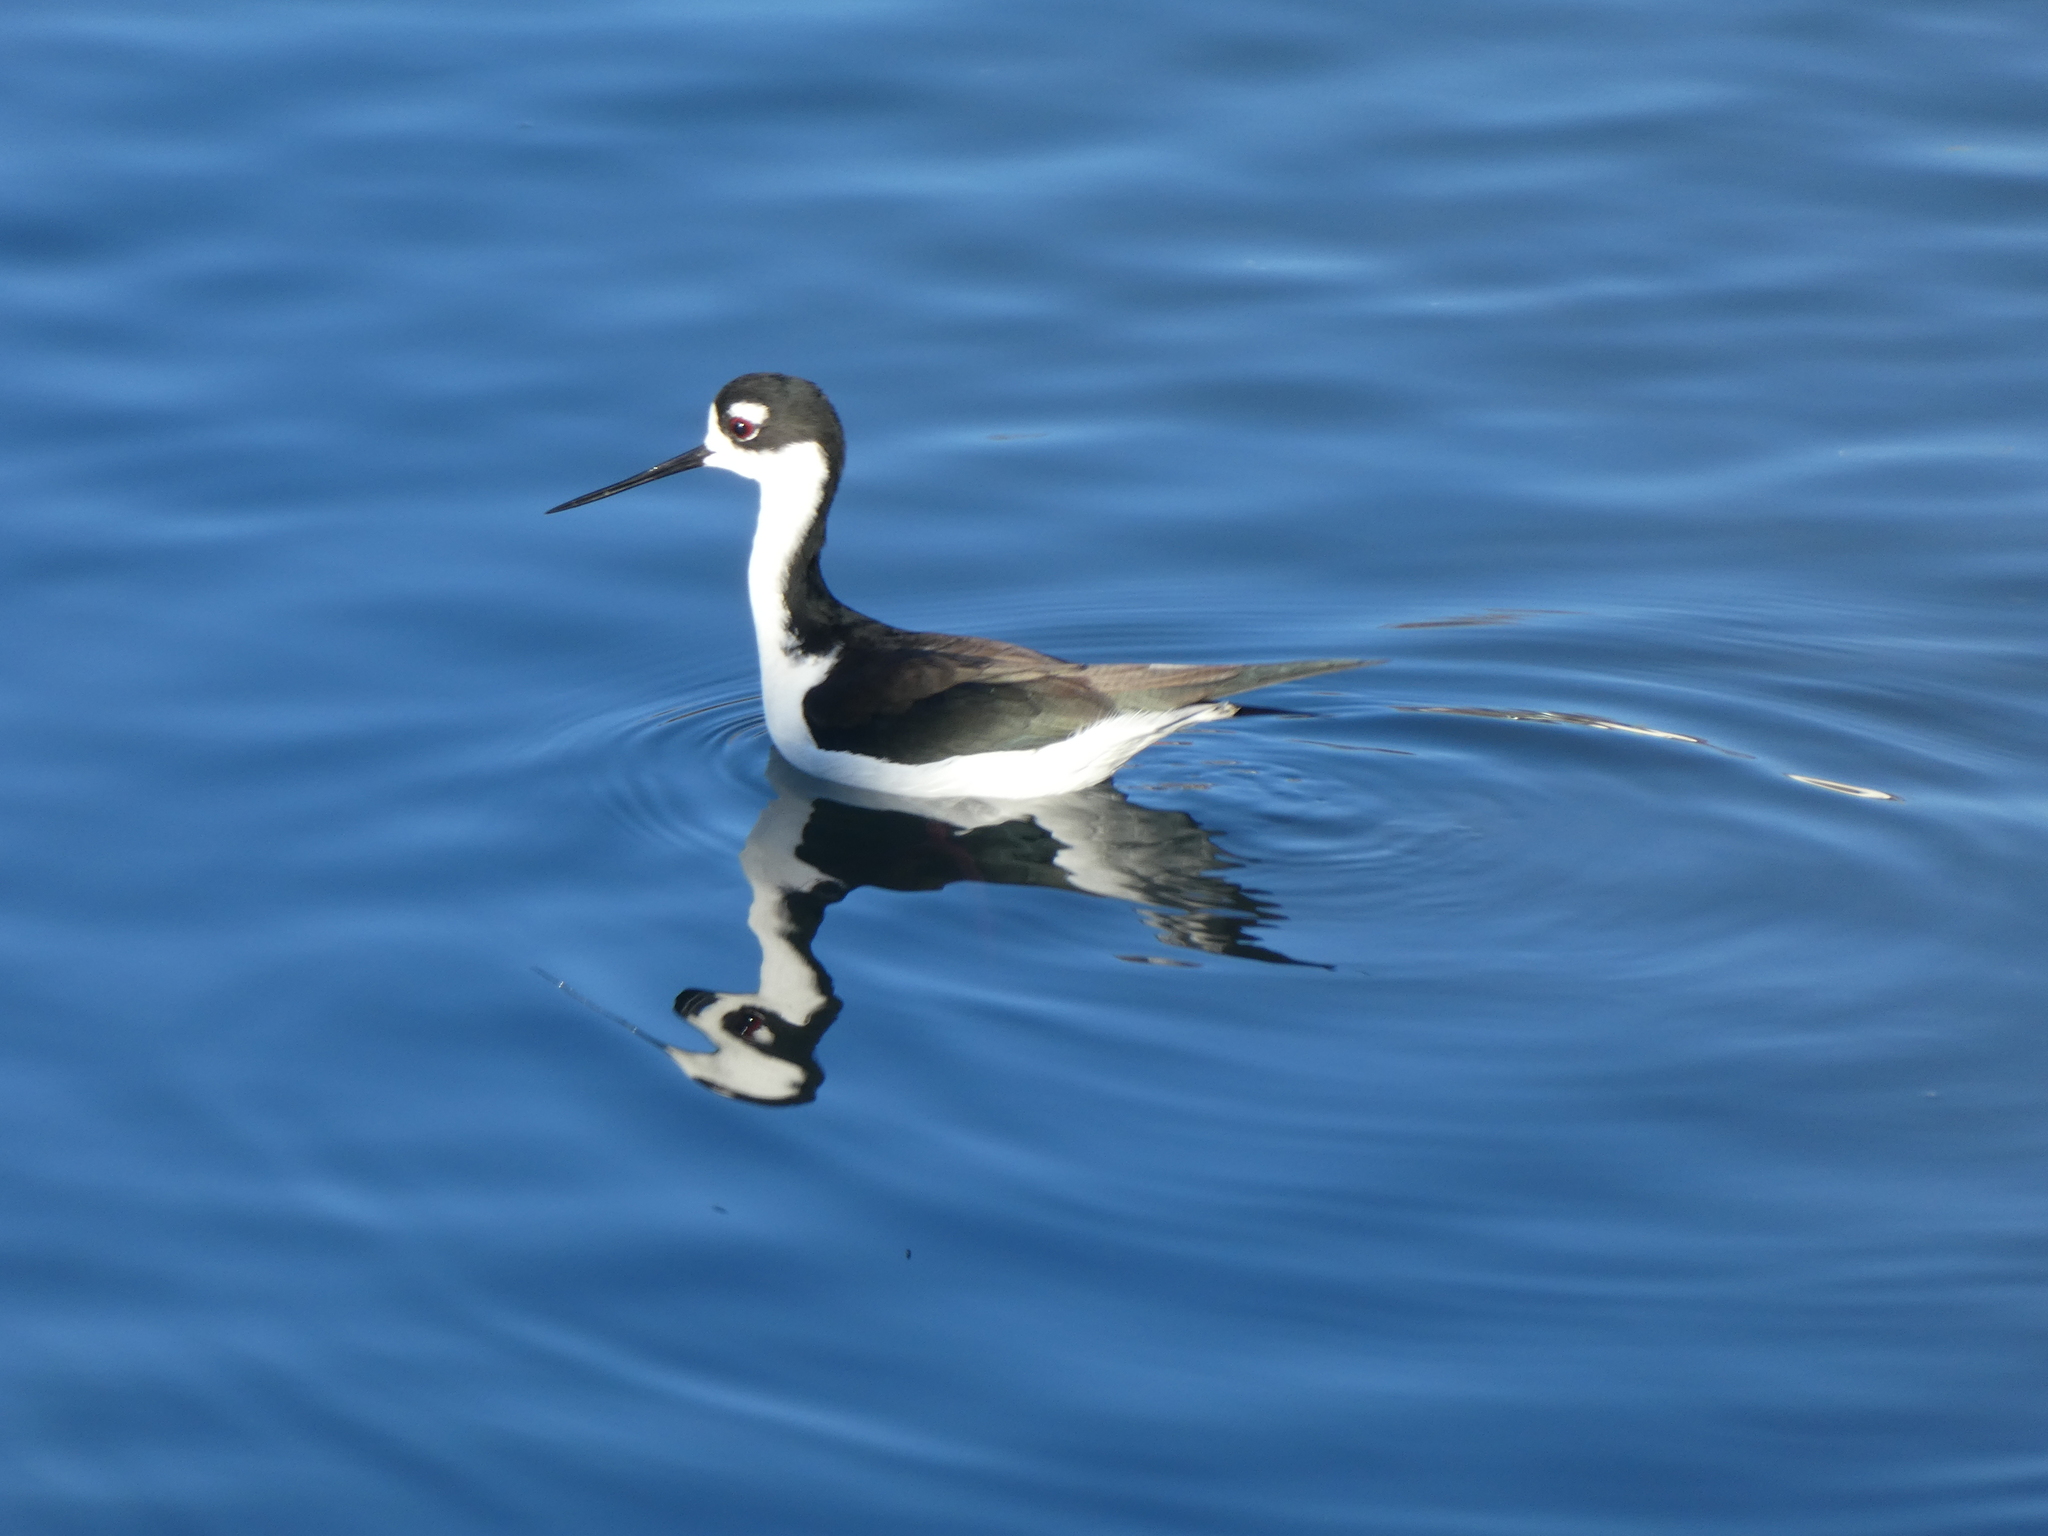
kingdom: Animalia
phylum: Chordata
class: Aves
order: Charadriiformes
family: Recurvirostridae
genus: Himantopus
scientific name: Himantopus mexicanus
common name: Black-necked stilt
